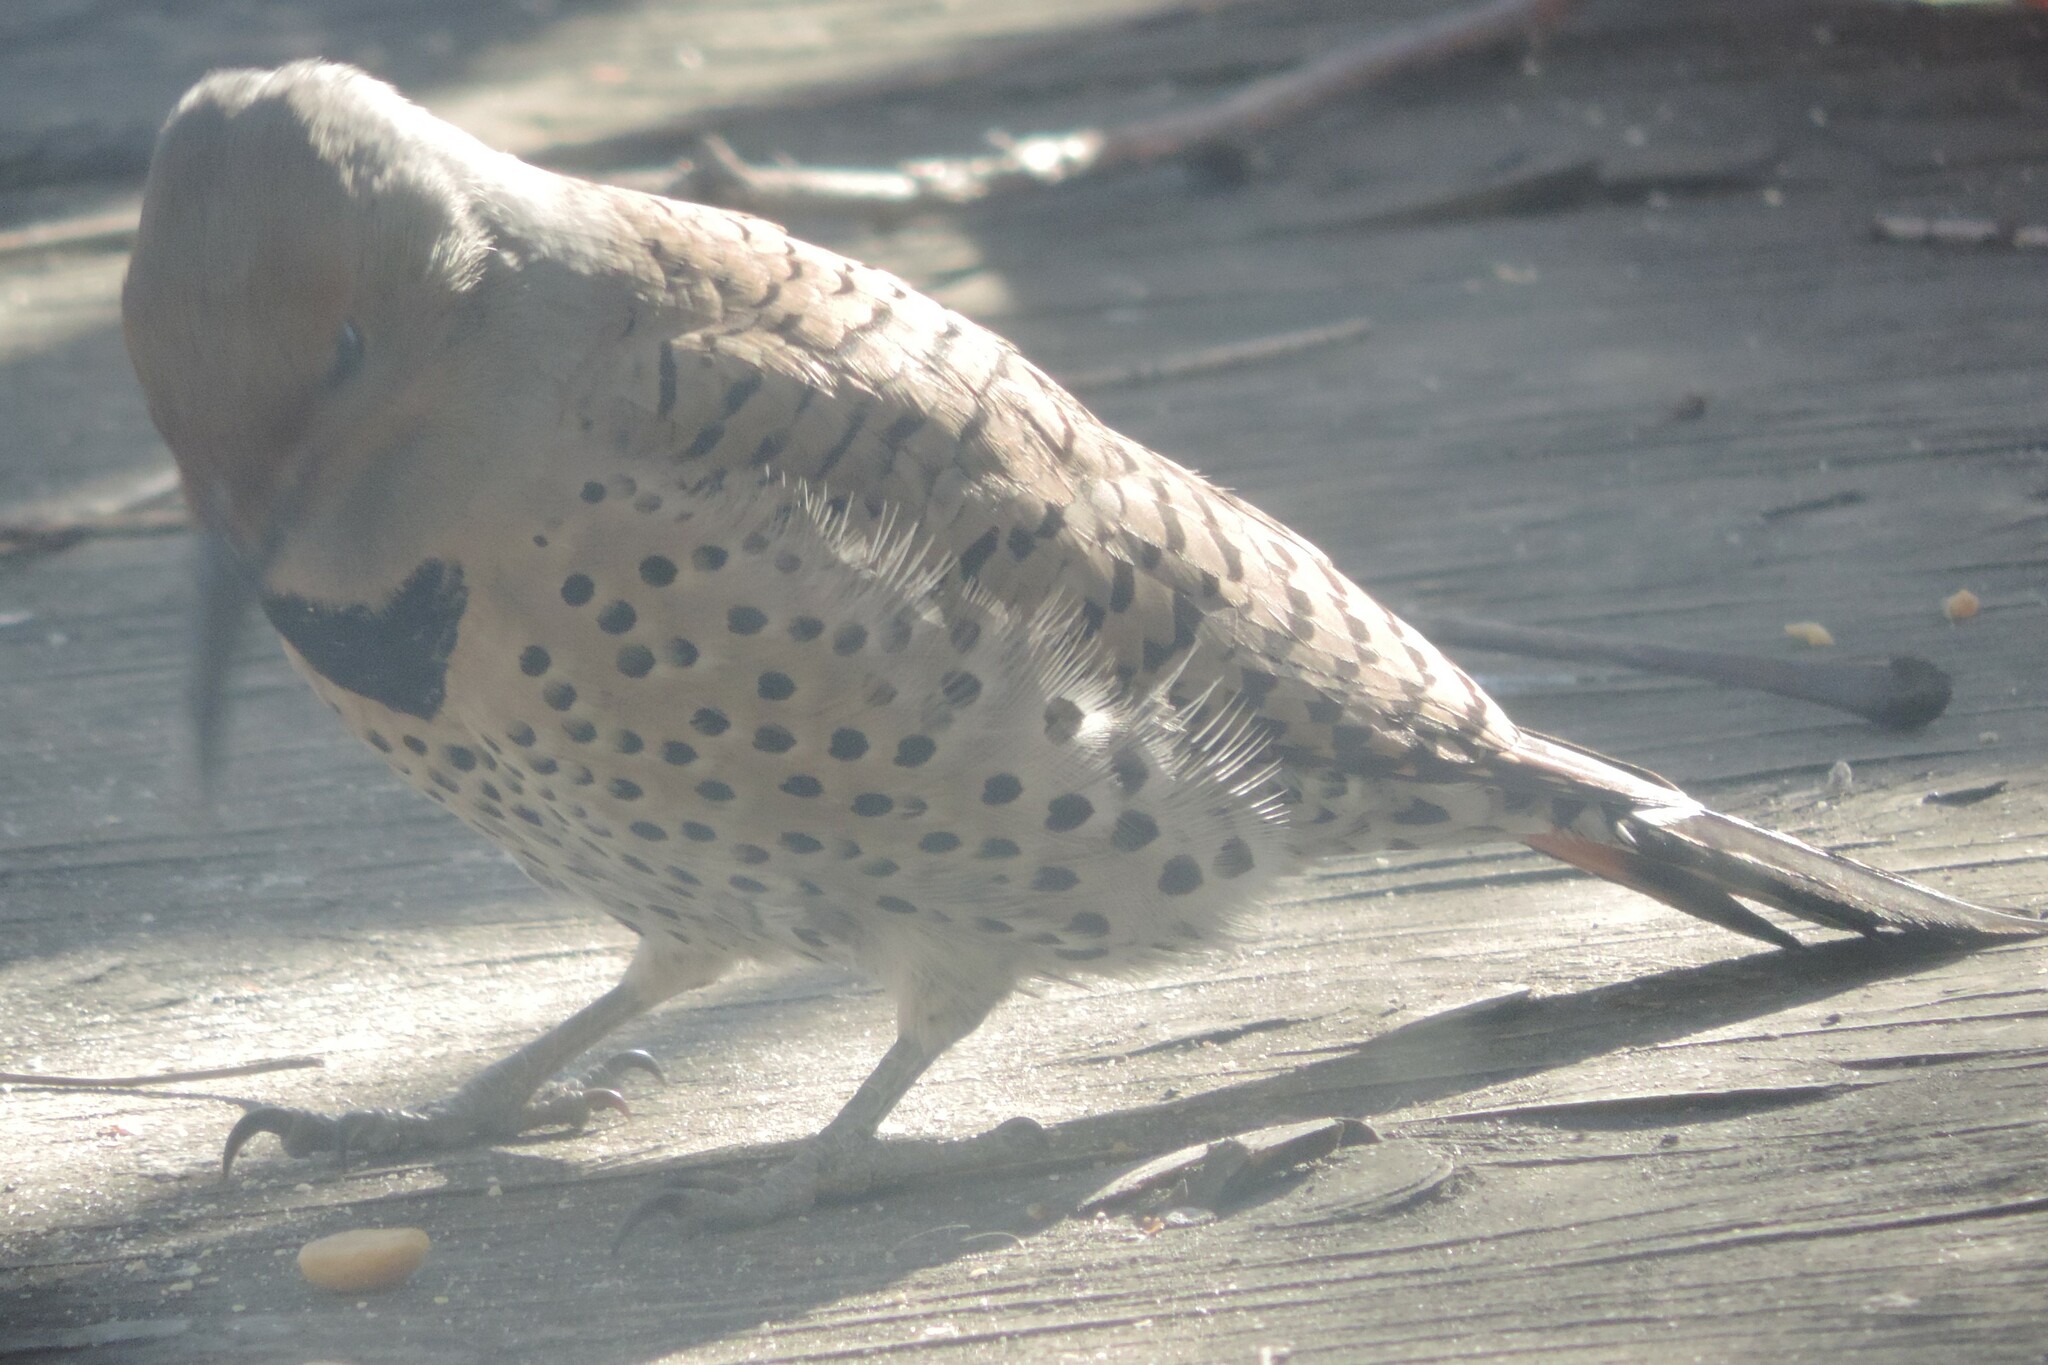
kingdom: Animalia
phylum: Chordata
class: Aves
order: Piciformes
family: Picidae
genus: Colaptes
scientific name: Colaptes auratus
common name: Northern flicker
